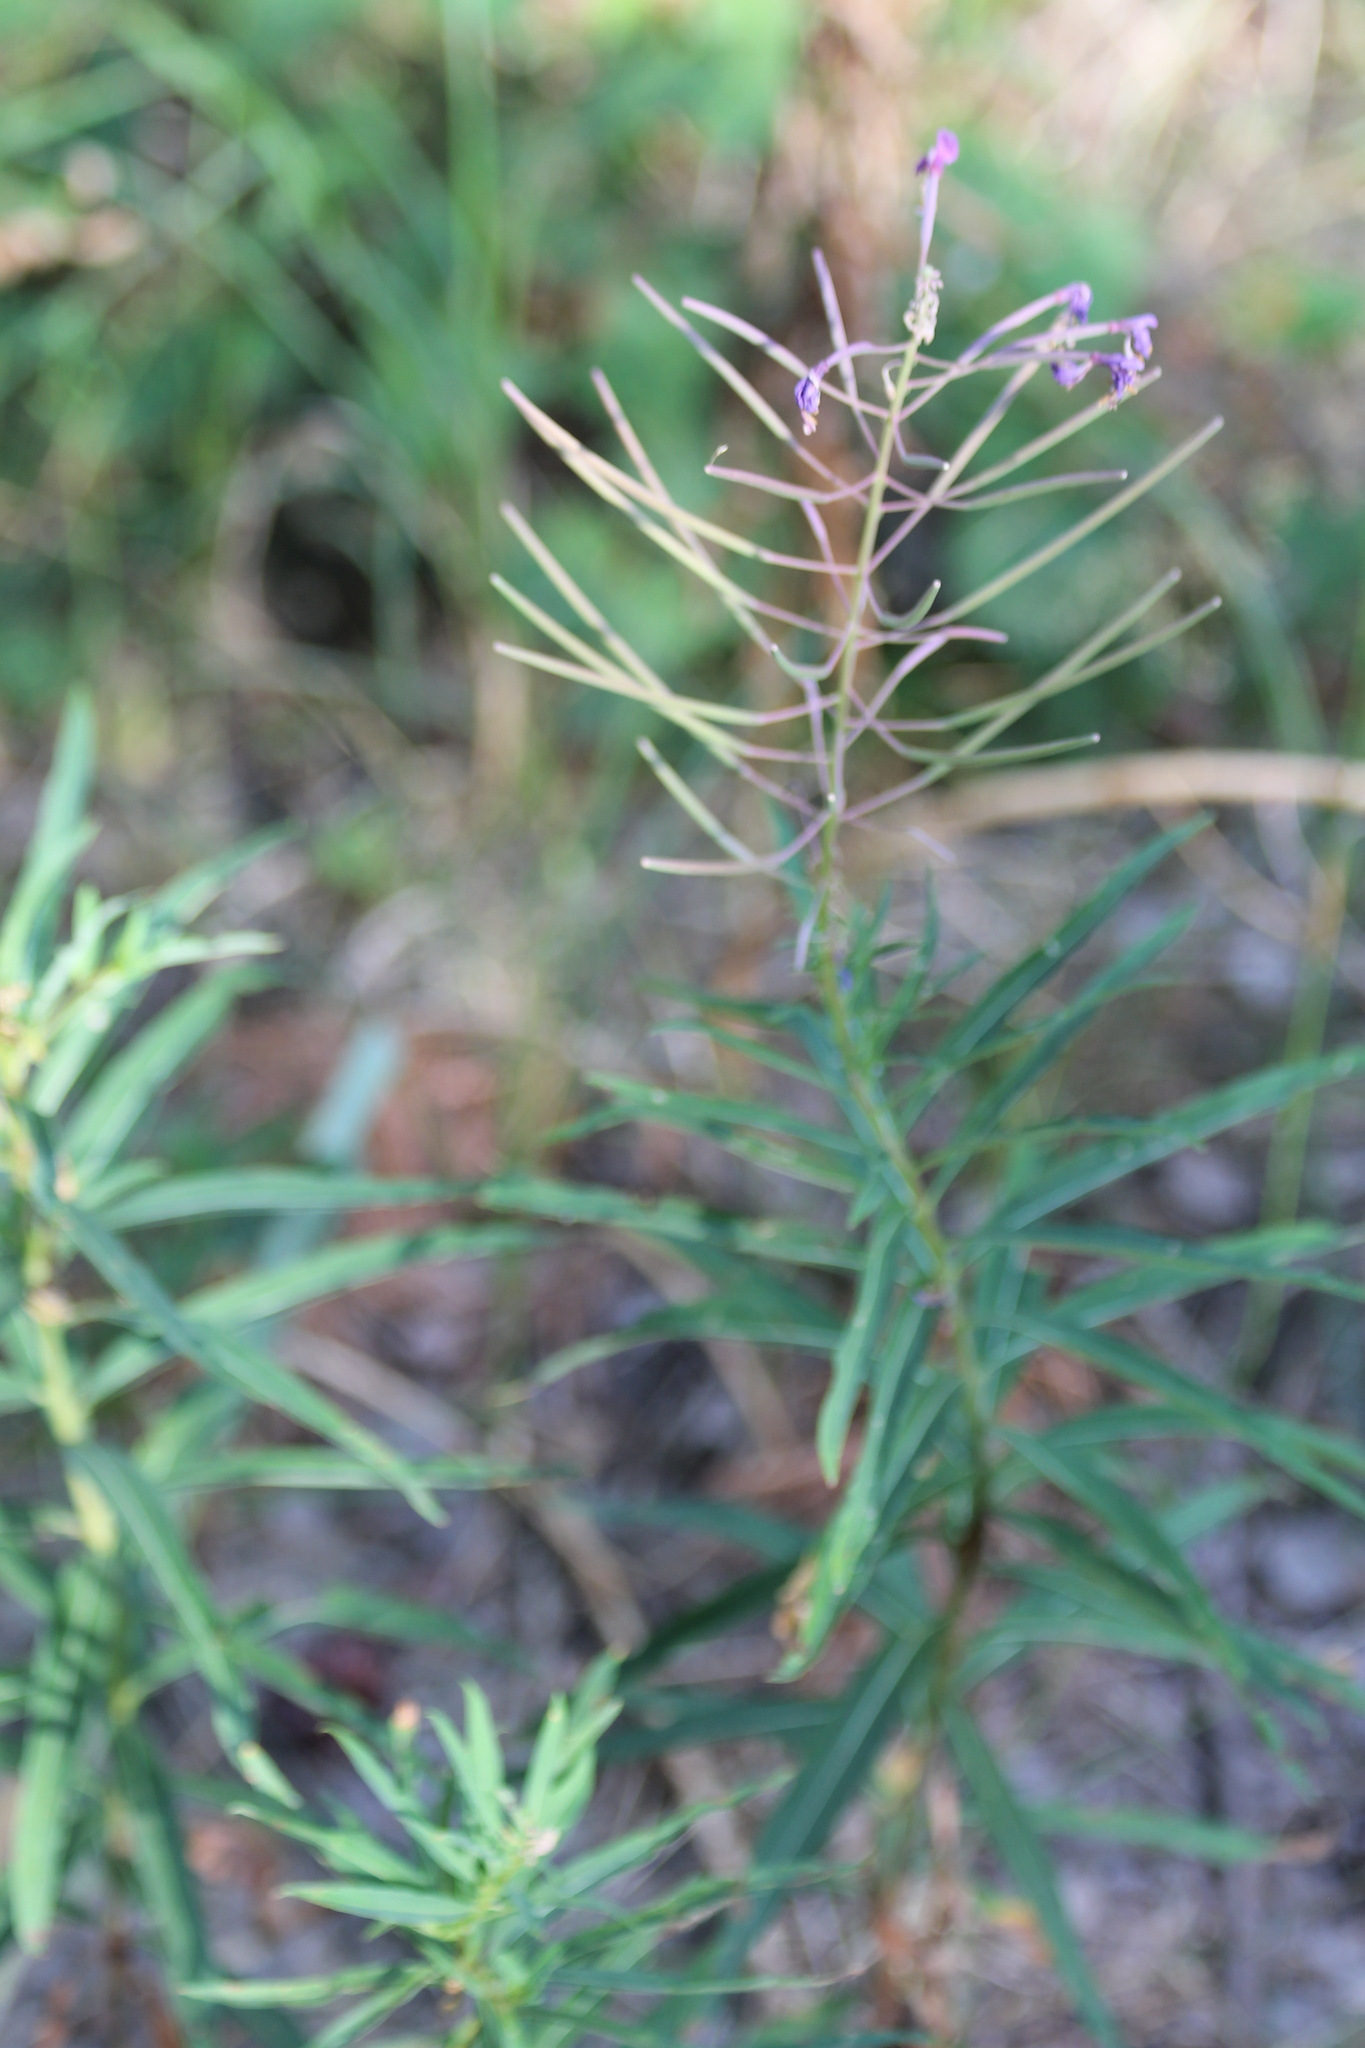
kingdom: Plantae
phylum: Tracheophyta
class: Magnoliopsida
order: Myrtales
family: Onagraceae
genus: Chamaenerion
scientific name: Chamaenerion angustifolium
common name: Fireweed
